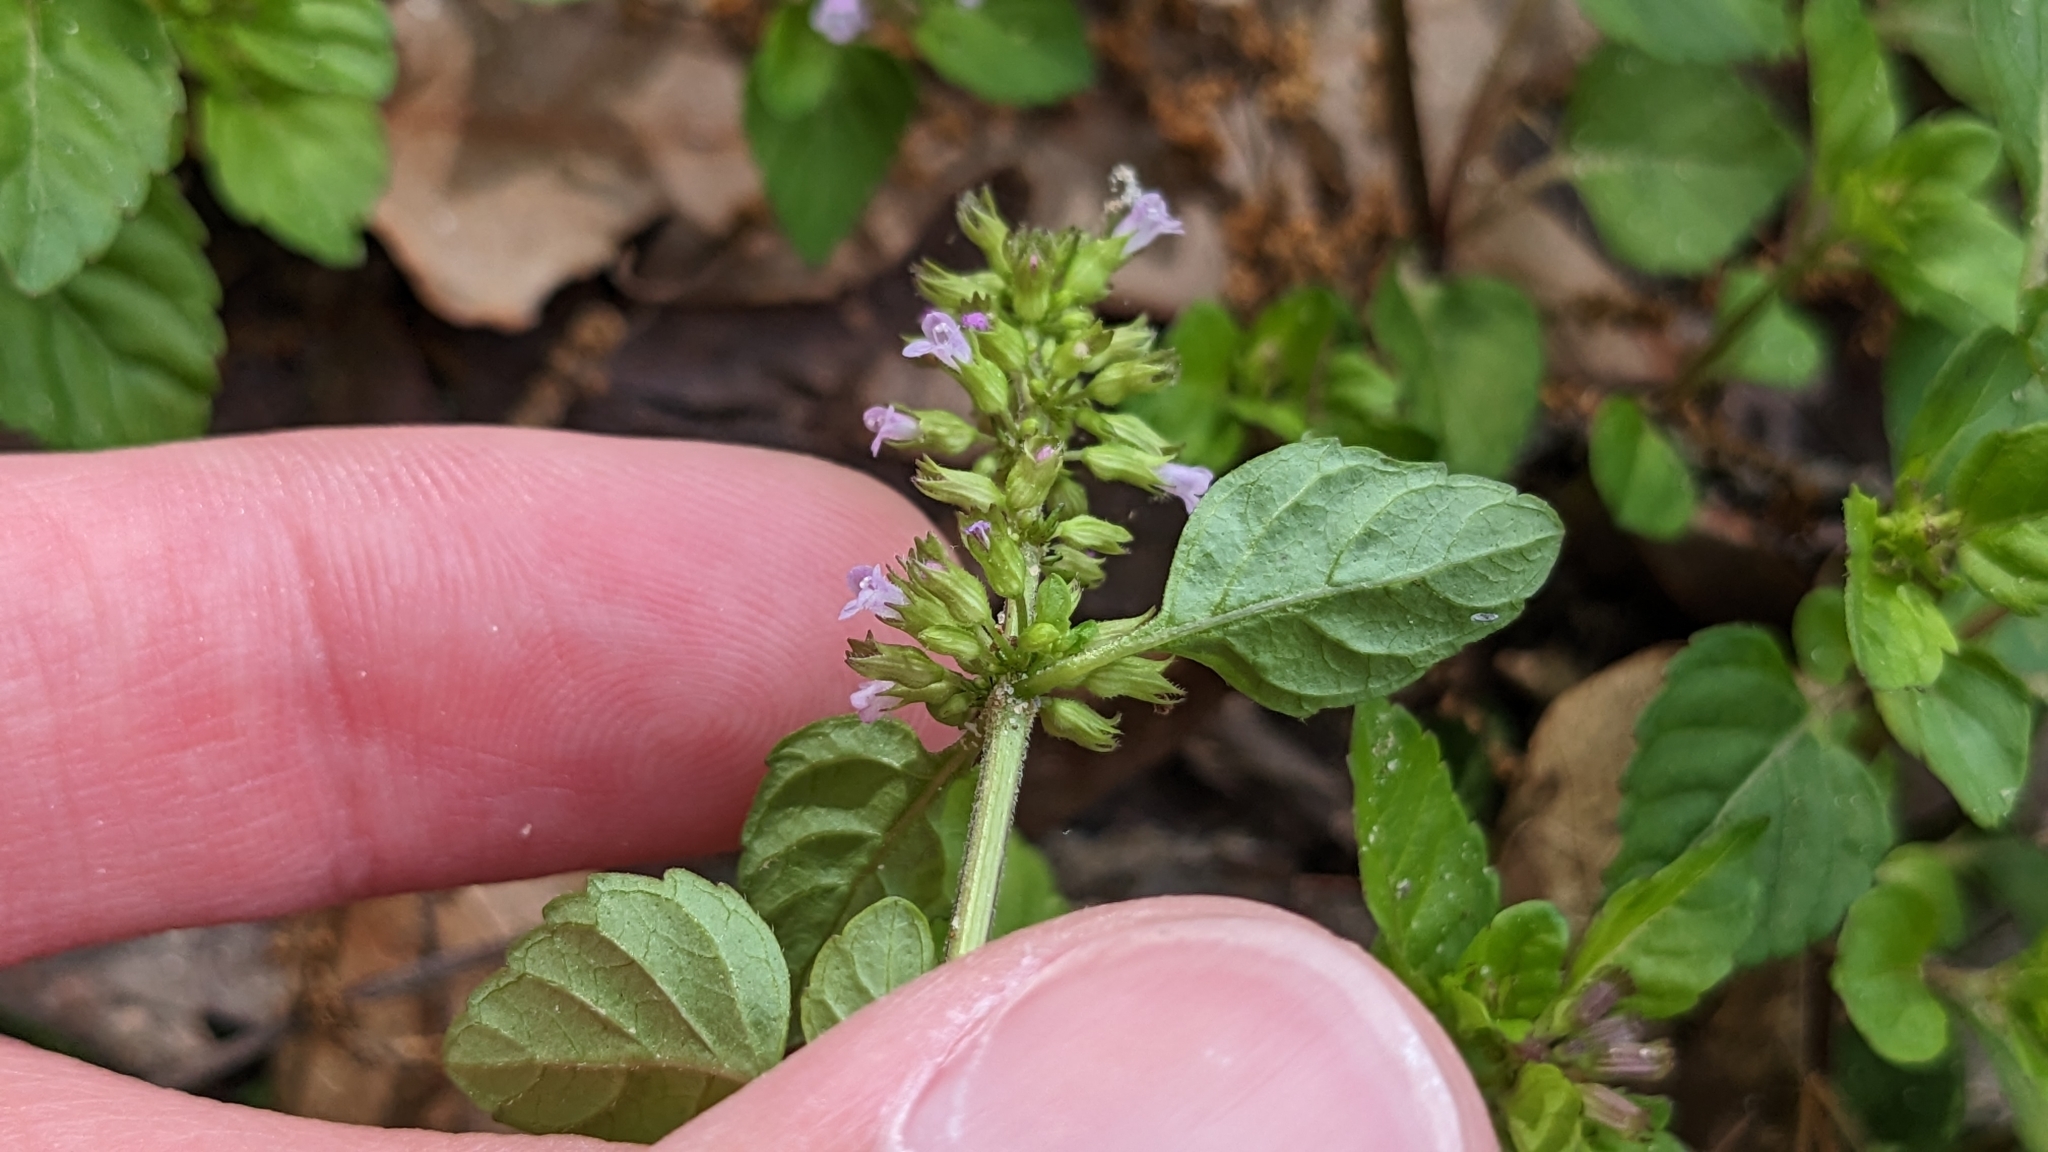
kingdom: Plantae
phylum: Tracheophyta
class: Magnoliopsida
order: Lamiales
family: Lamiaceae
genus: Clinopodium
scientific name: Clinopodium gracile
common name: Slender wild basil
